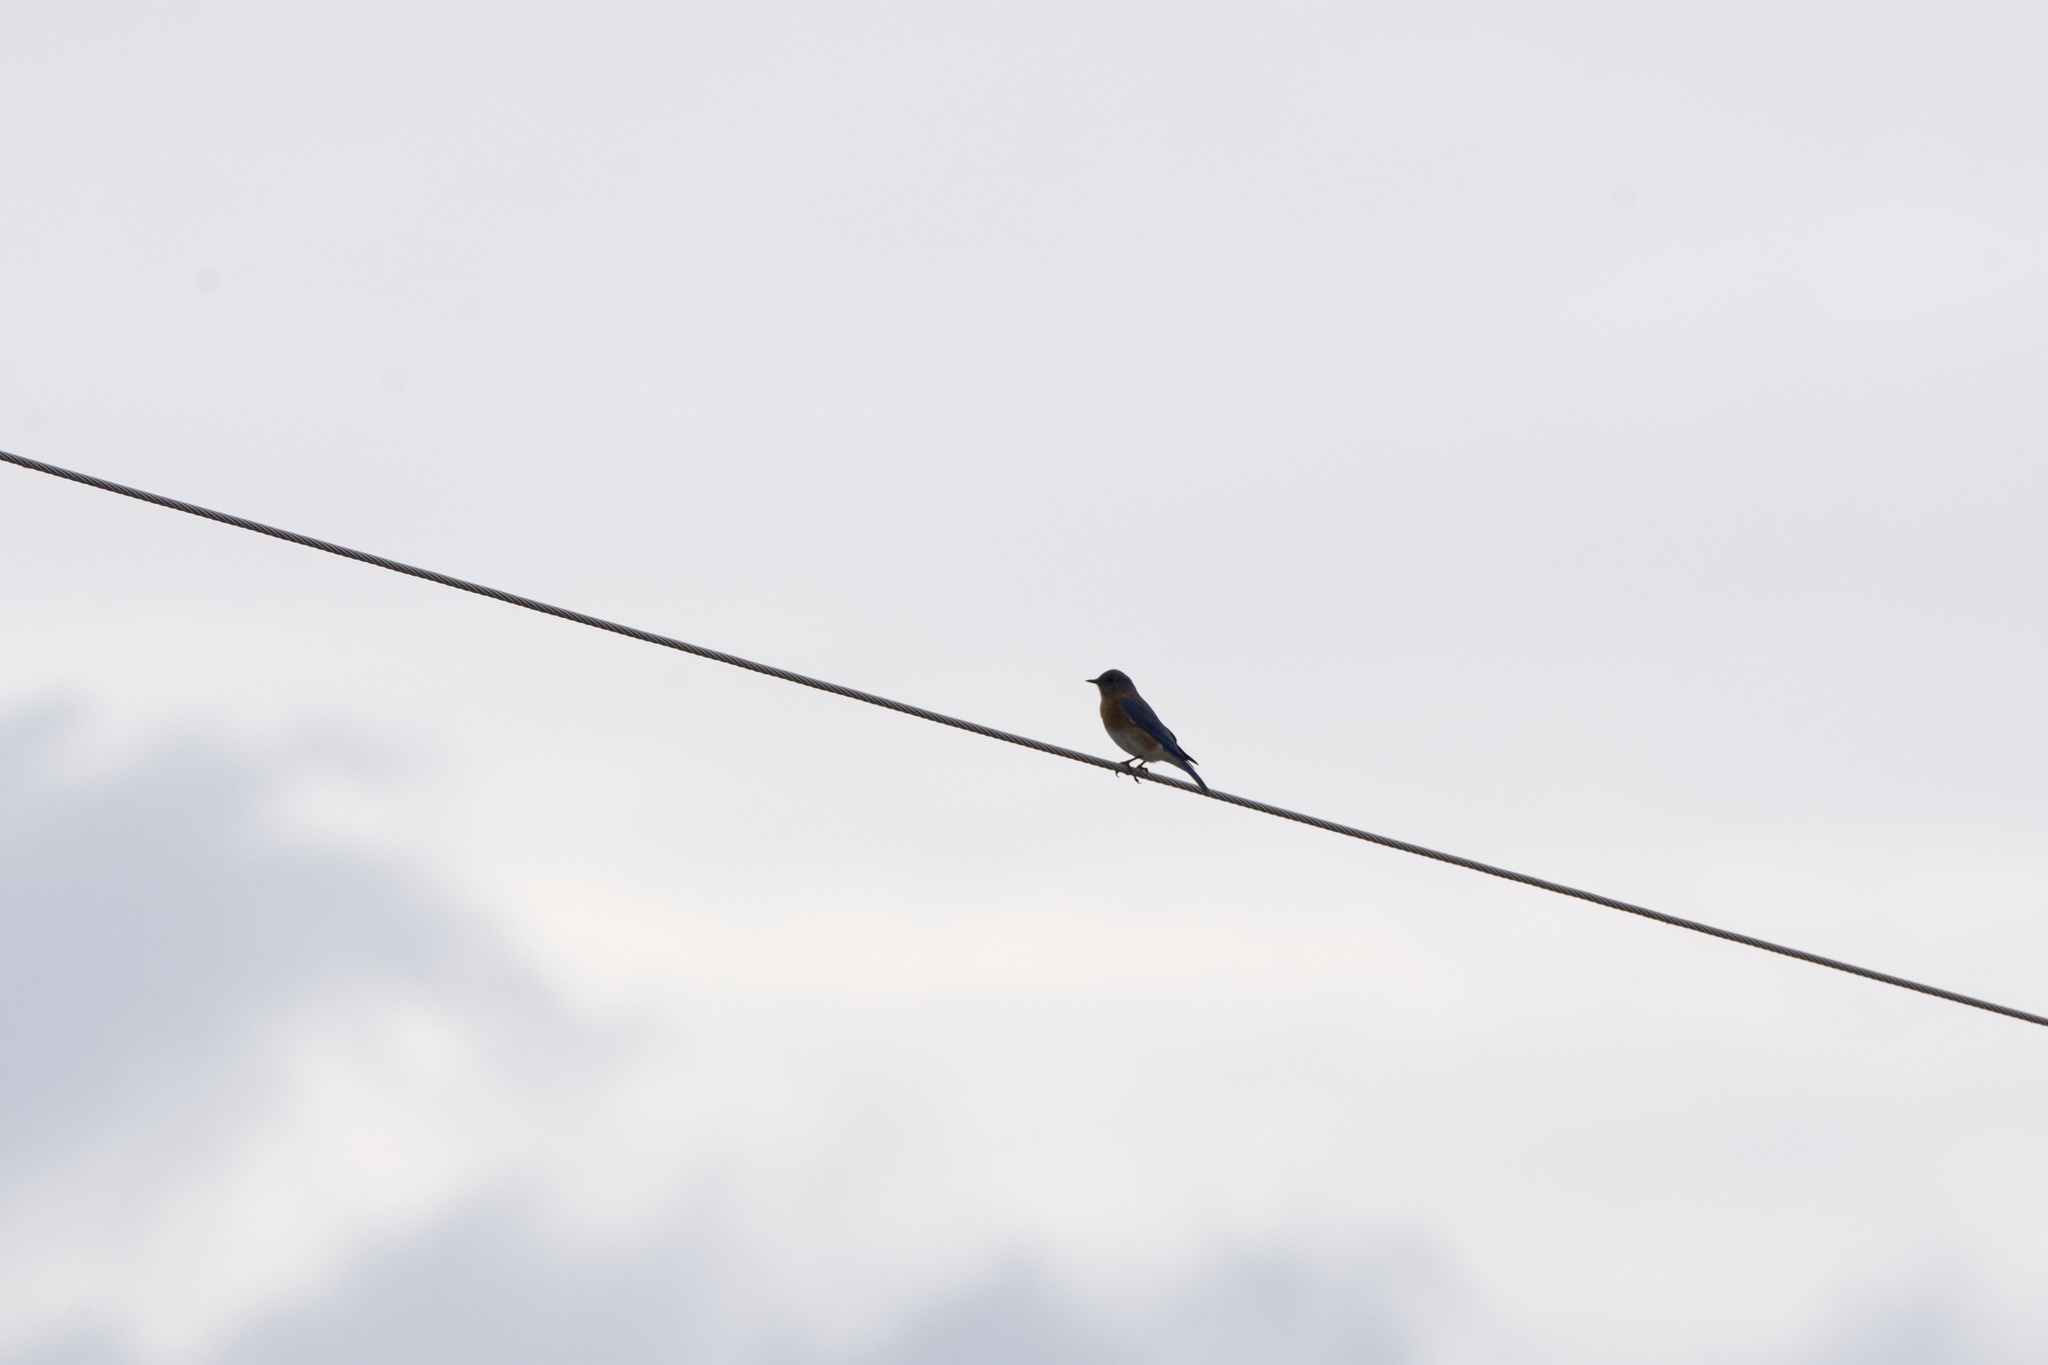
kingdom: Animalia
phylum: Chordata
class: Aves
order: Passeriformes
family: Turdidae
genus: Sialia
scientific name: Sialia sialis
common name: Eastern bluebird
